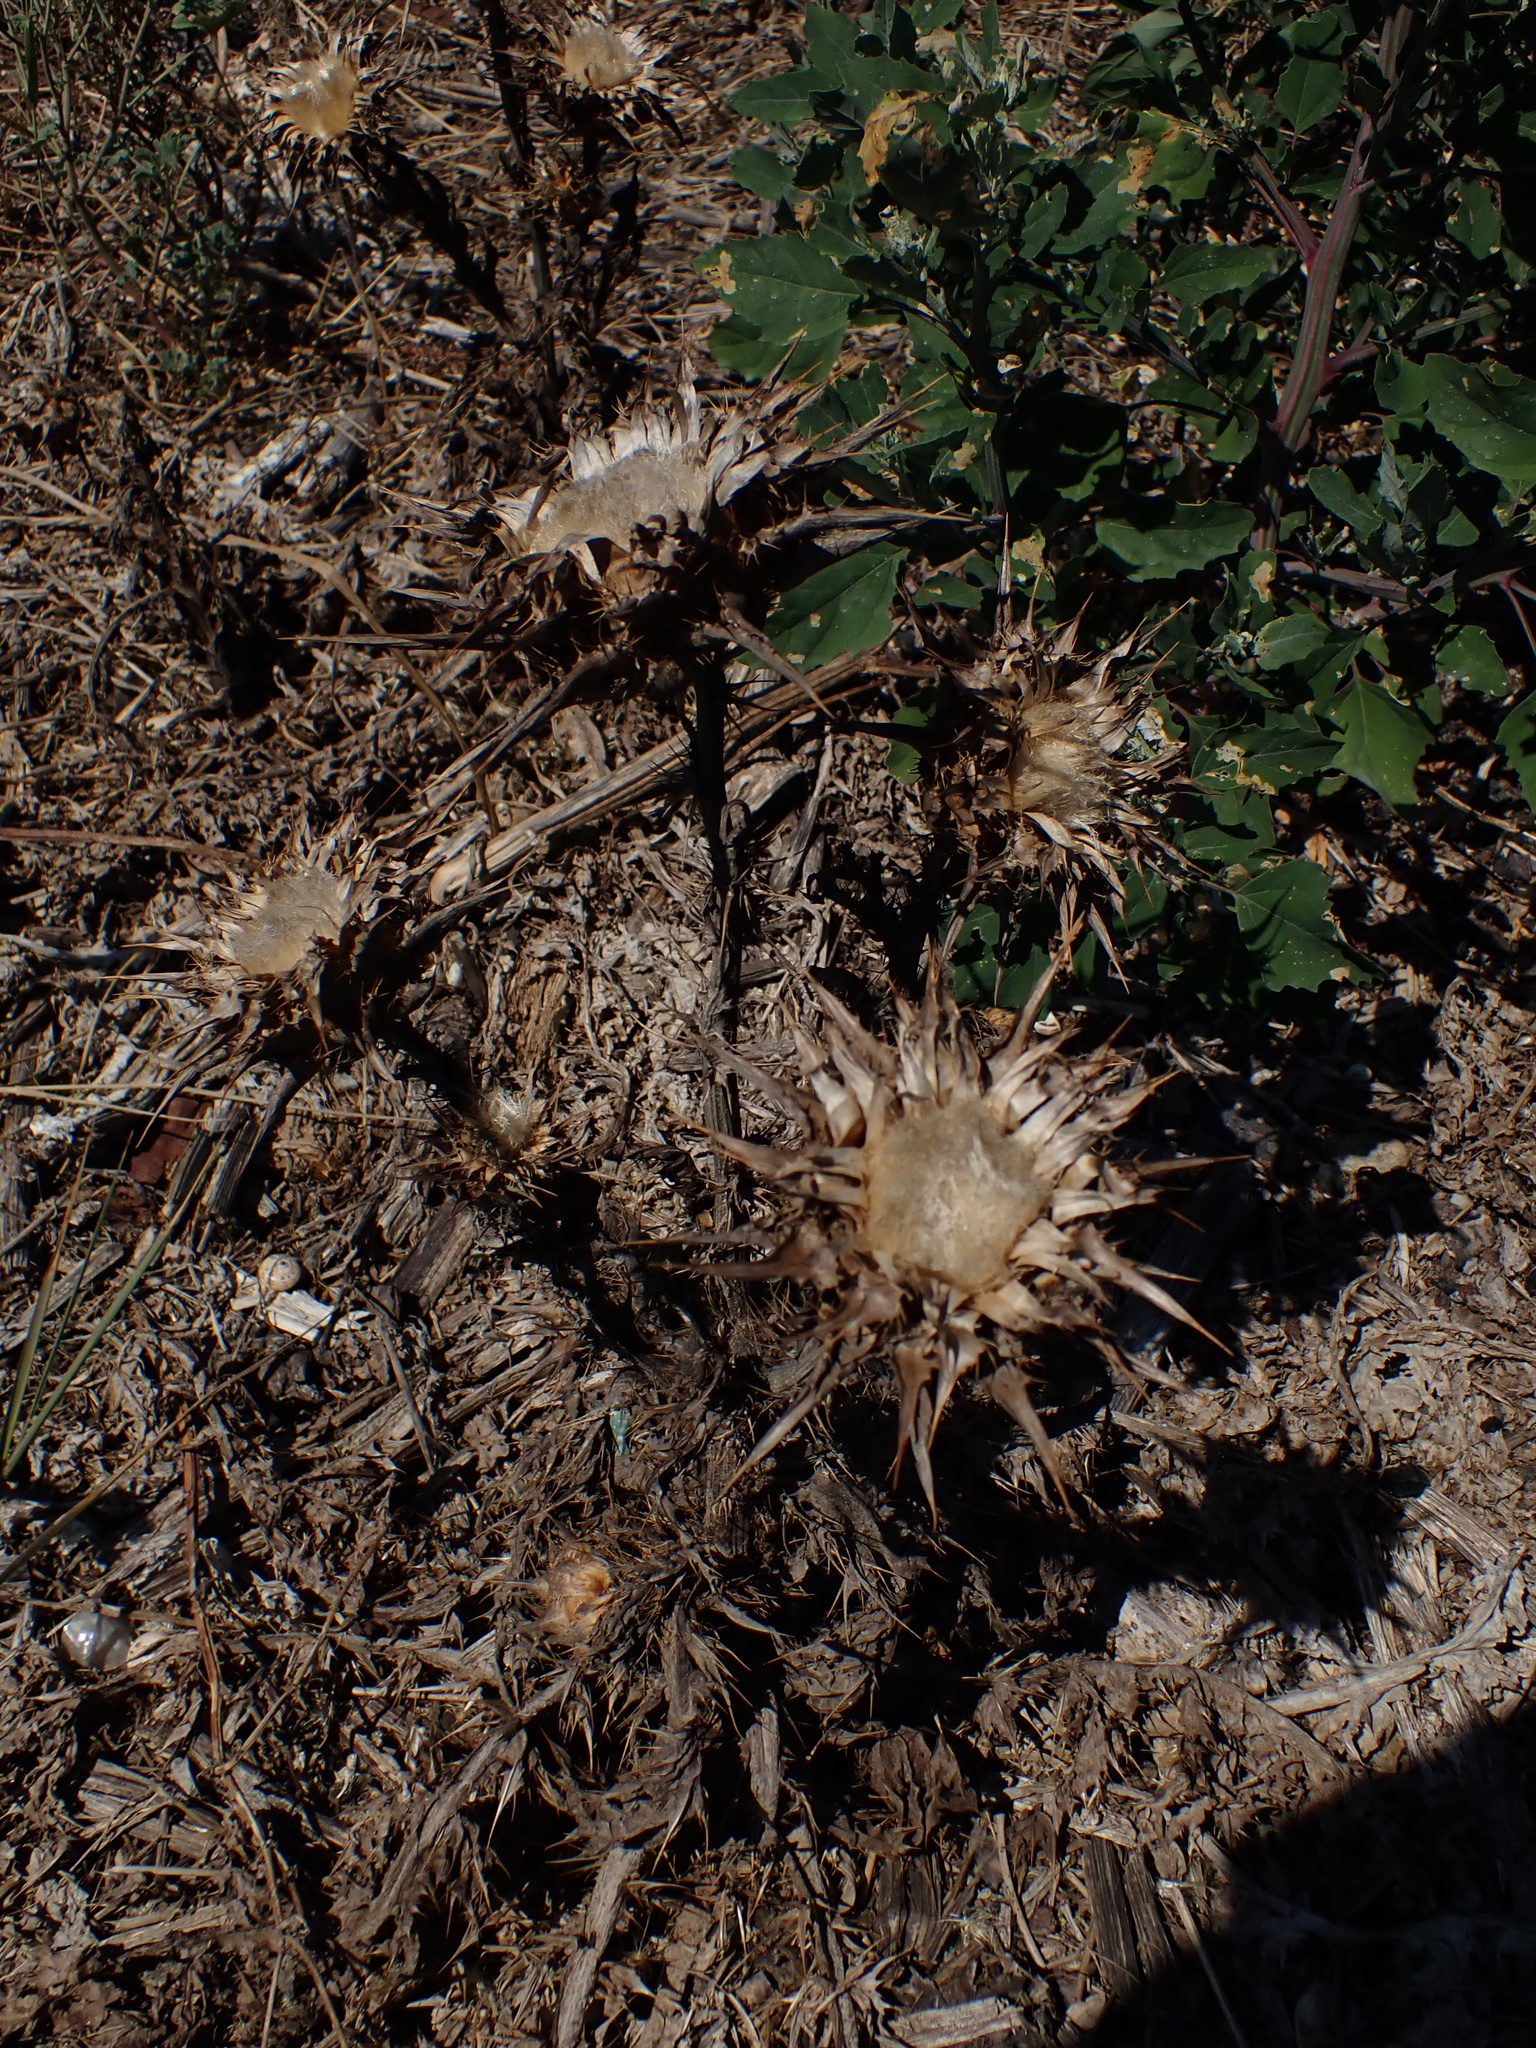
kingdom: Plantae
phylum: Tracheophyta
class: Magnoliopsida
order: Asterales
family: Asteraceae
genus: Silybum
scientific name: Silybum marianum
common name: Milk thistle
